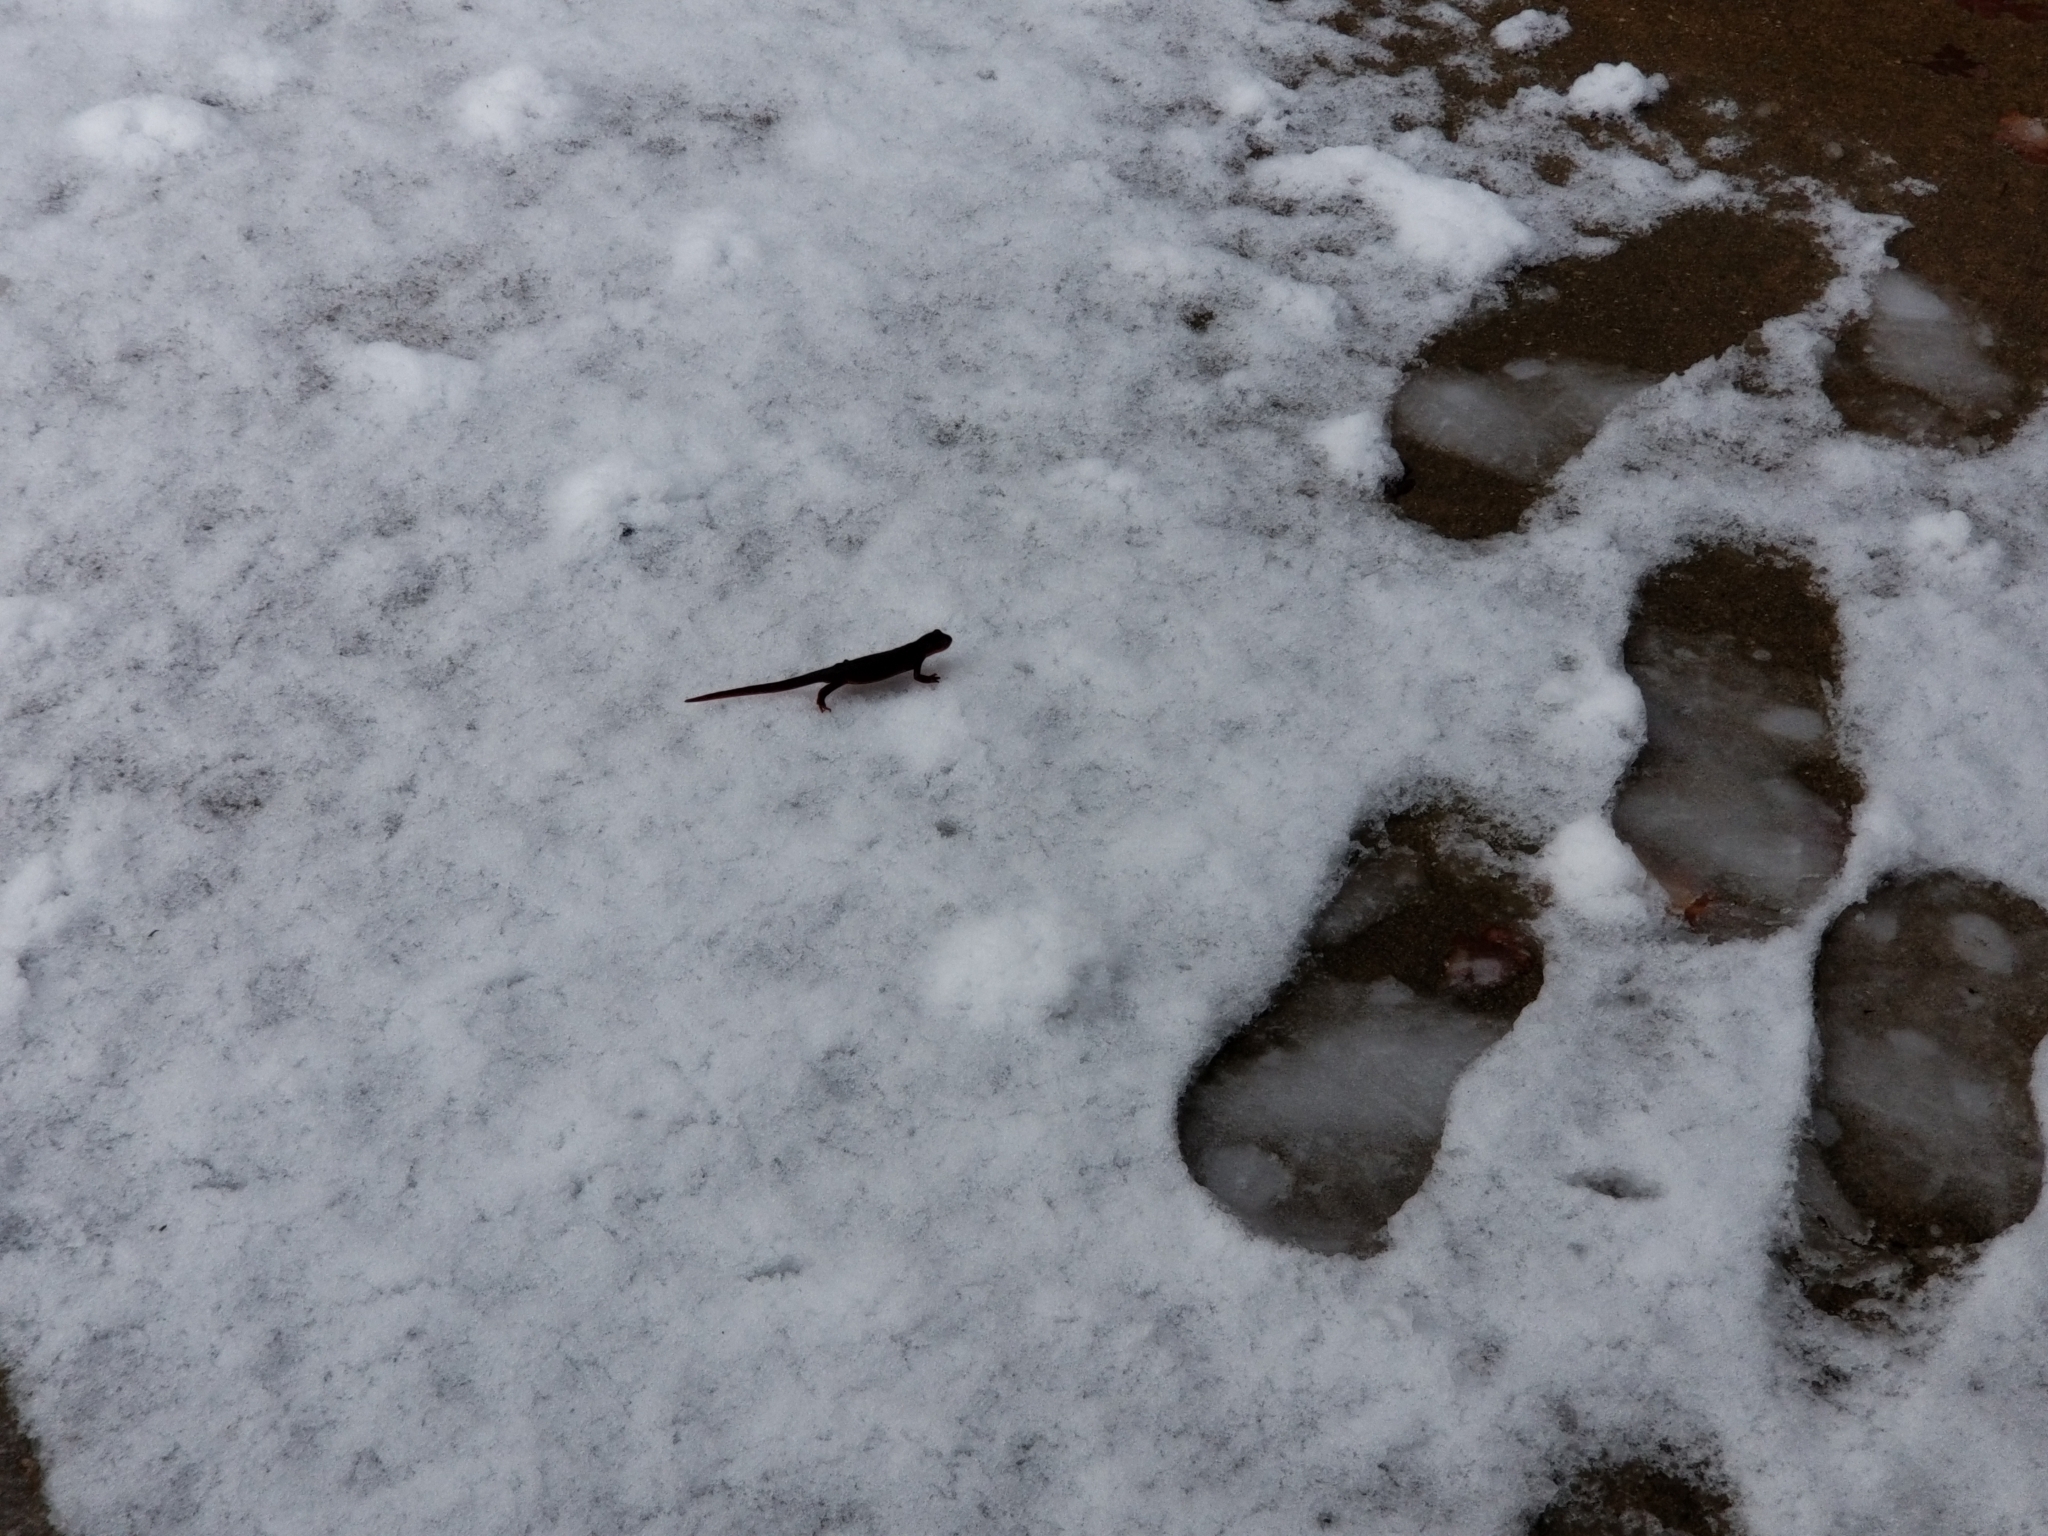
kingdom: Animalia
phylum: Chordata
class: Amphibia
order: Caudata
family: Salamandridae
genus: Taricha
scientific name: Taricha sierrae
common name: Sierra newt
